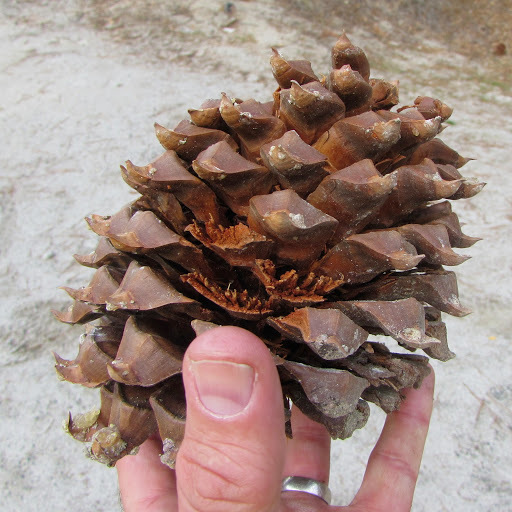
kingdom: Plantae
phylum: Tracheophyta
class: Pinopsida
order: Pinales
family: Pinaceae
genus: Pinus
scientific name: Pinus sabiniana
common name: Bull pine
